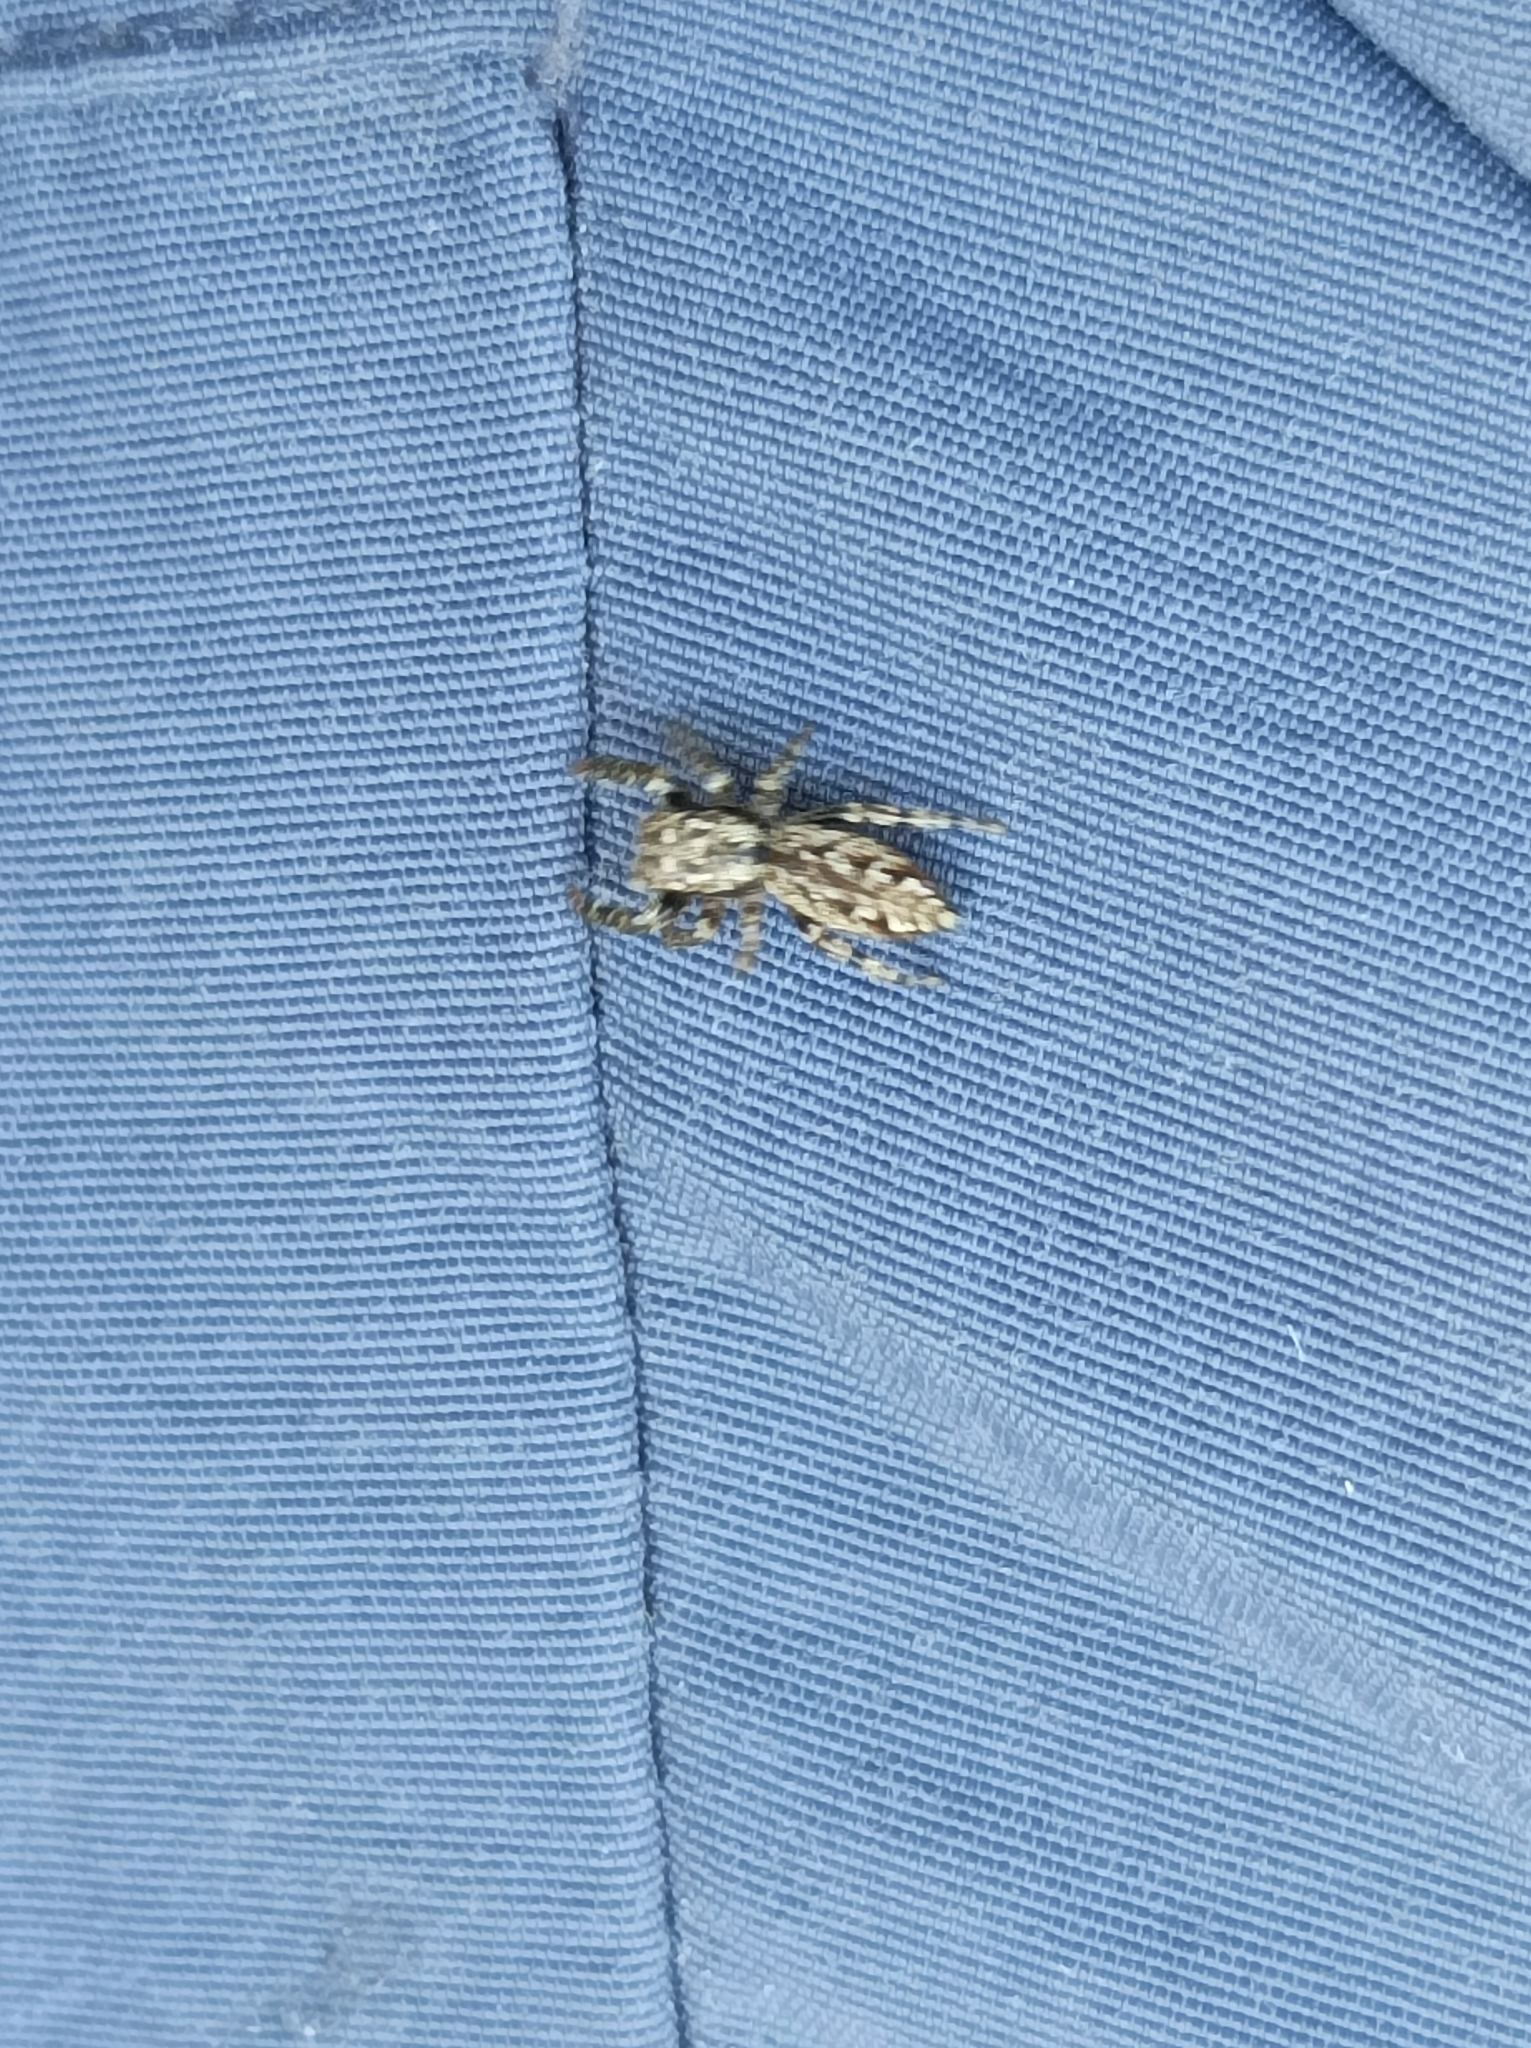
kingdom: Animalia
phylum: Arthropoda
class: Arachnida
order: Araneae
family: Salticidae
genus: Marpissa
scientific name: Marpissa muscosa
